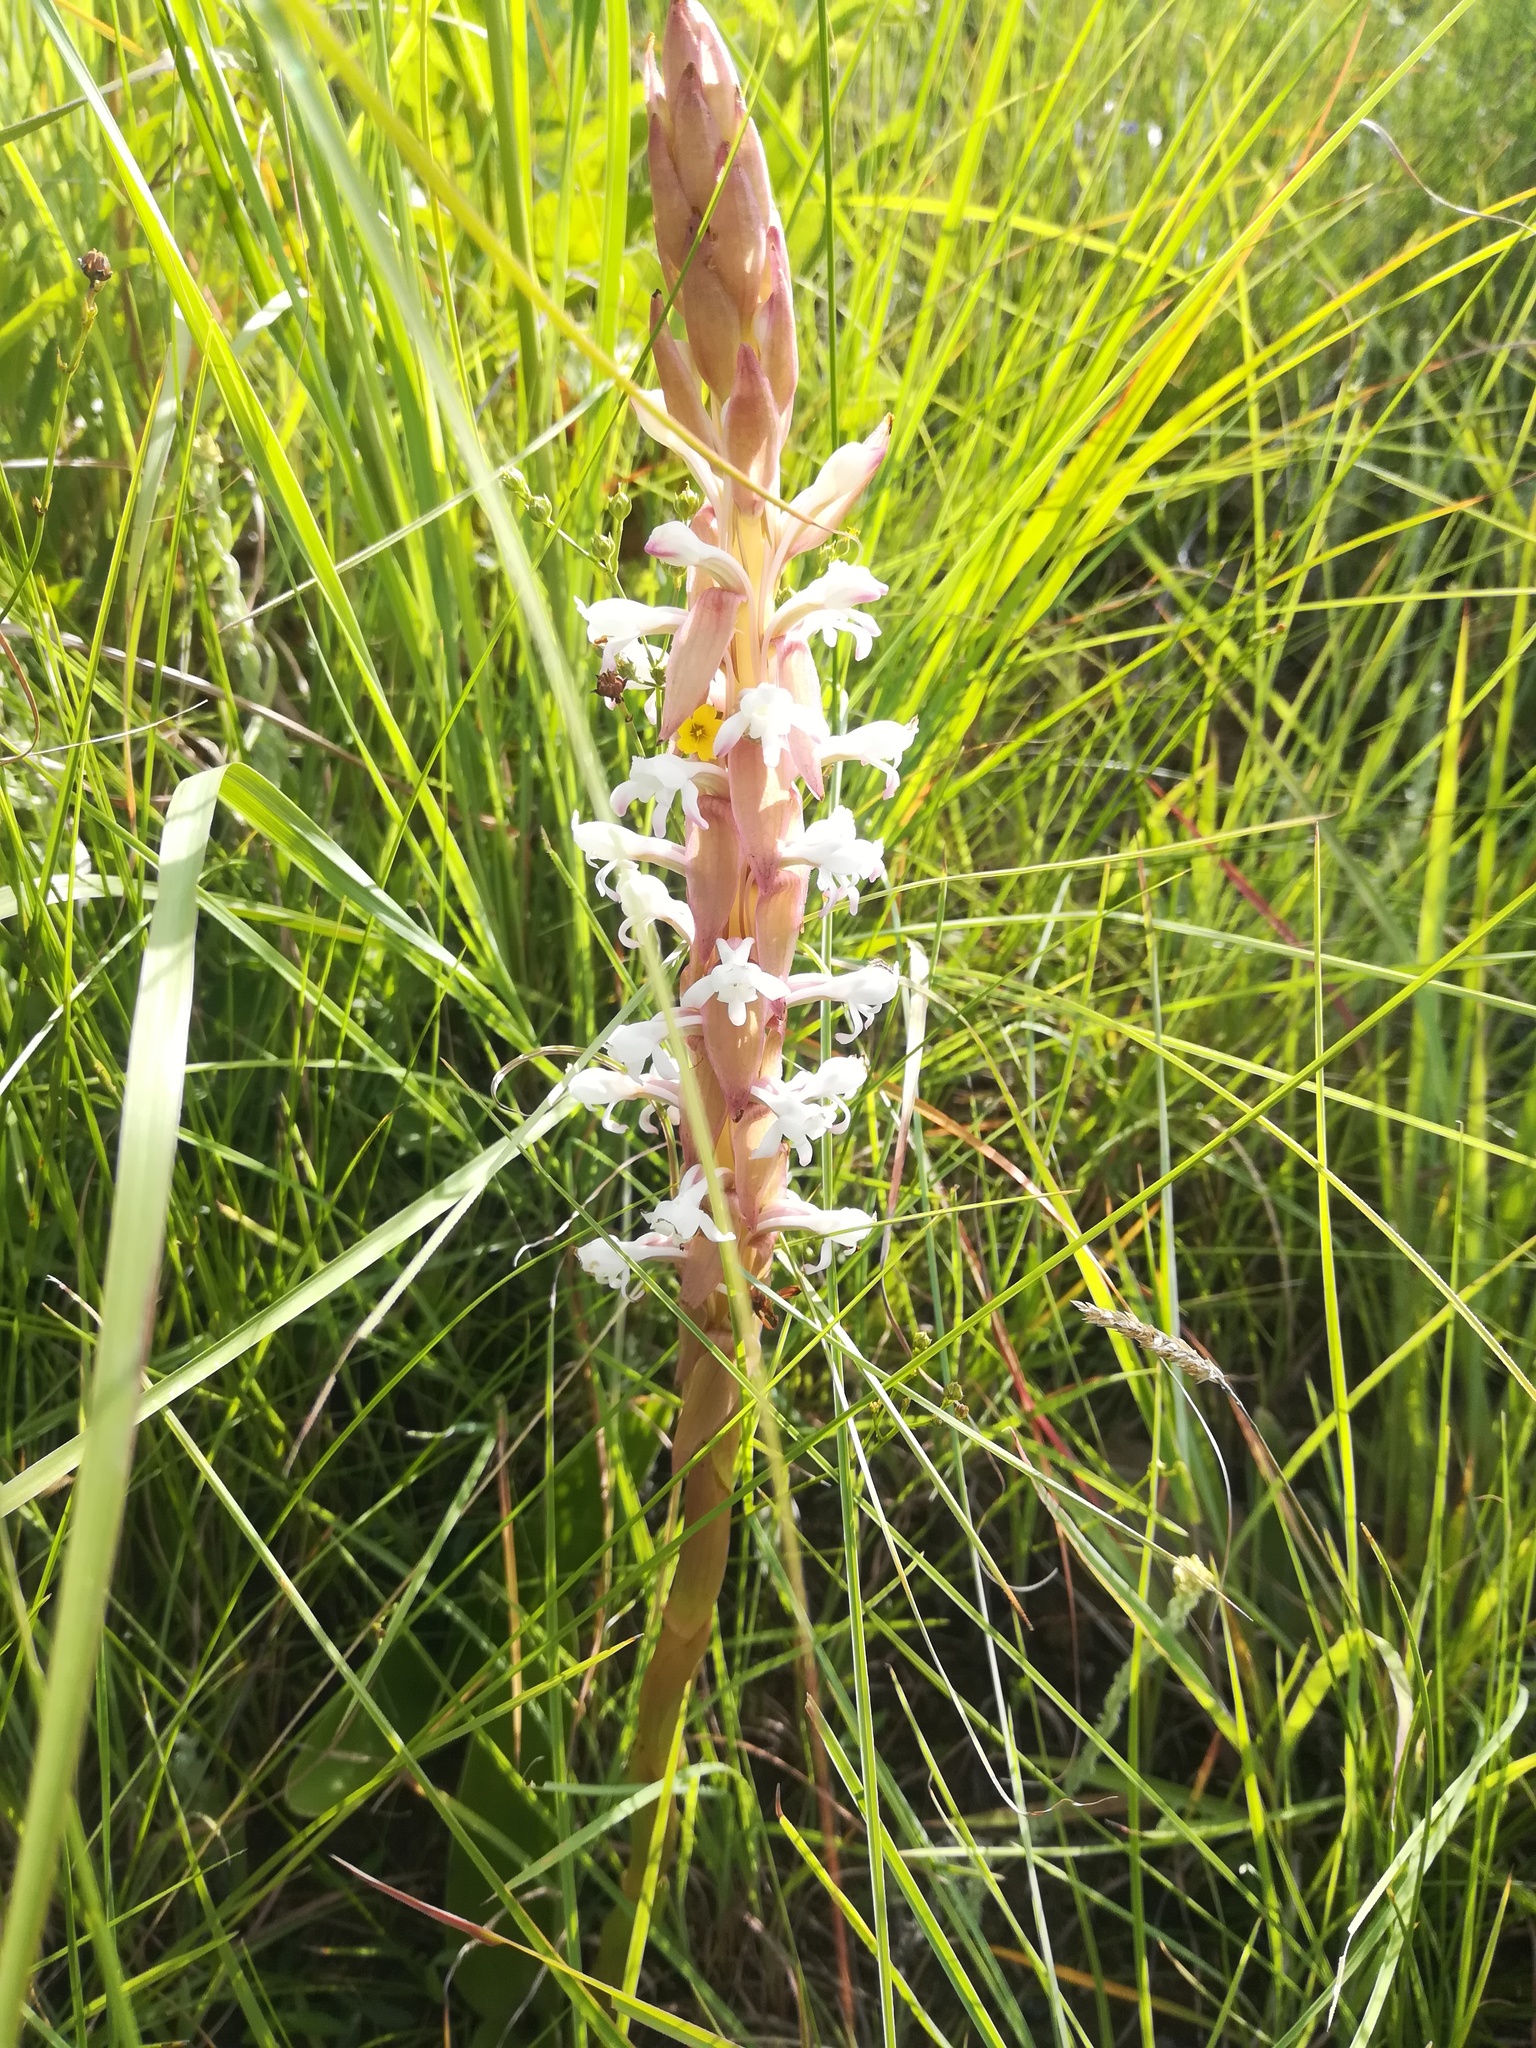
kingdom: Plantae
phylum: Tracheophyta
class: Liliopsida
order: Asparagales
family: Orchidaceae
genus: Satyrium
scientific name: Satyrium longicauda
